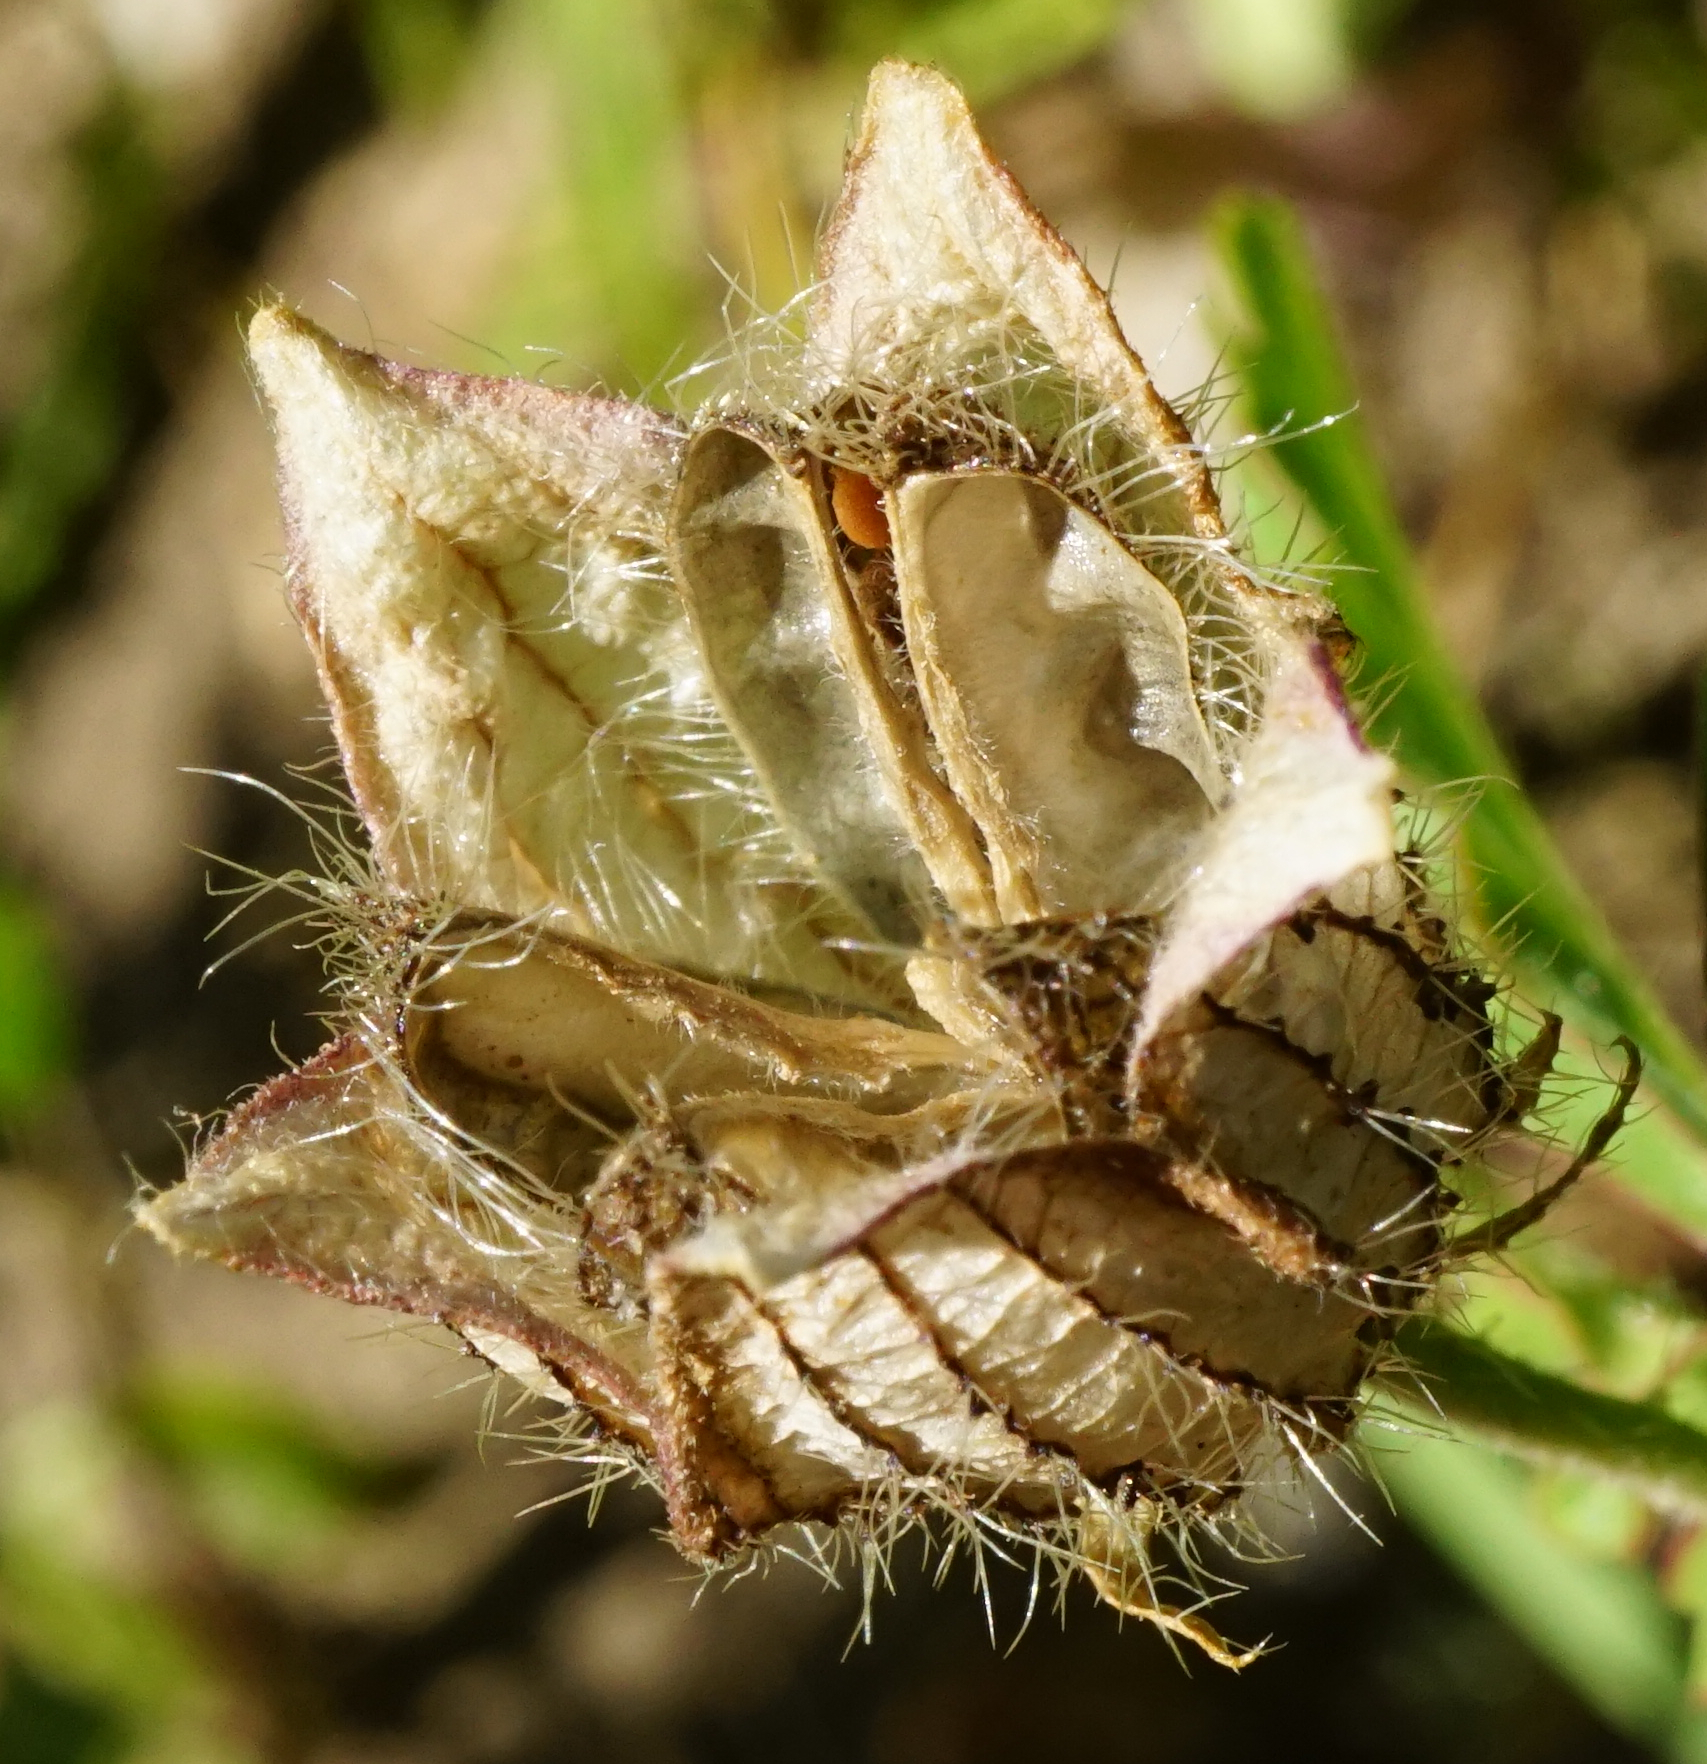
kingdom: Plantae
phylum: Tracheophyta
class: Magnoliopsida
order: Malvales
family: Malvaceae
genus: Hibiscus
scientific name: Hibiscus trionum
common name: Bladder ketmia
